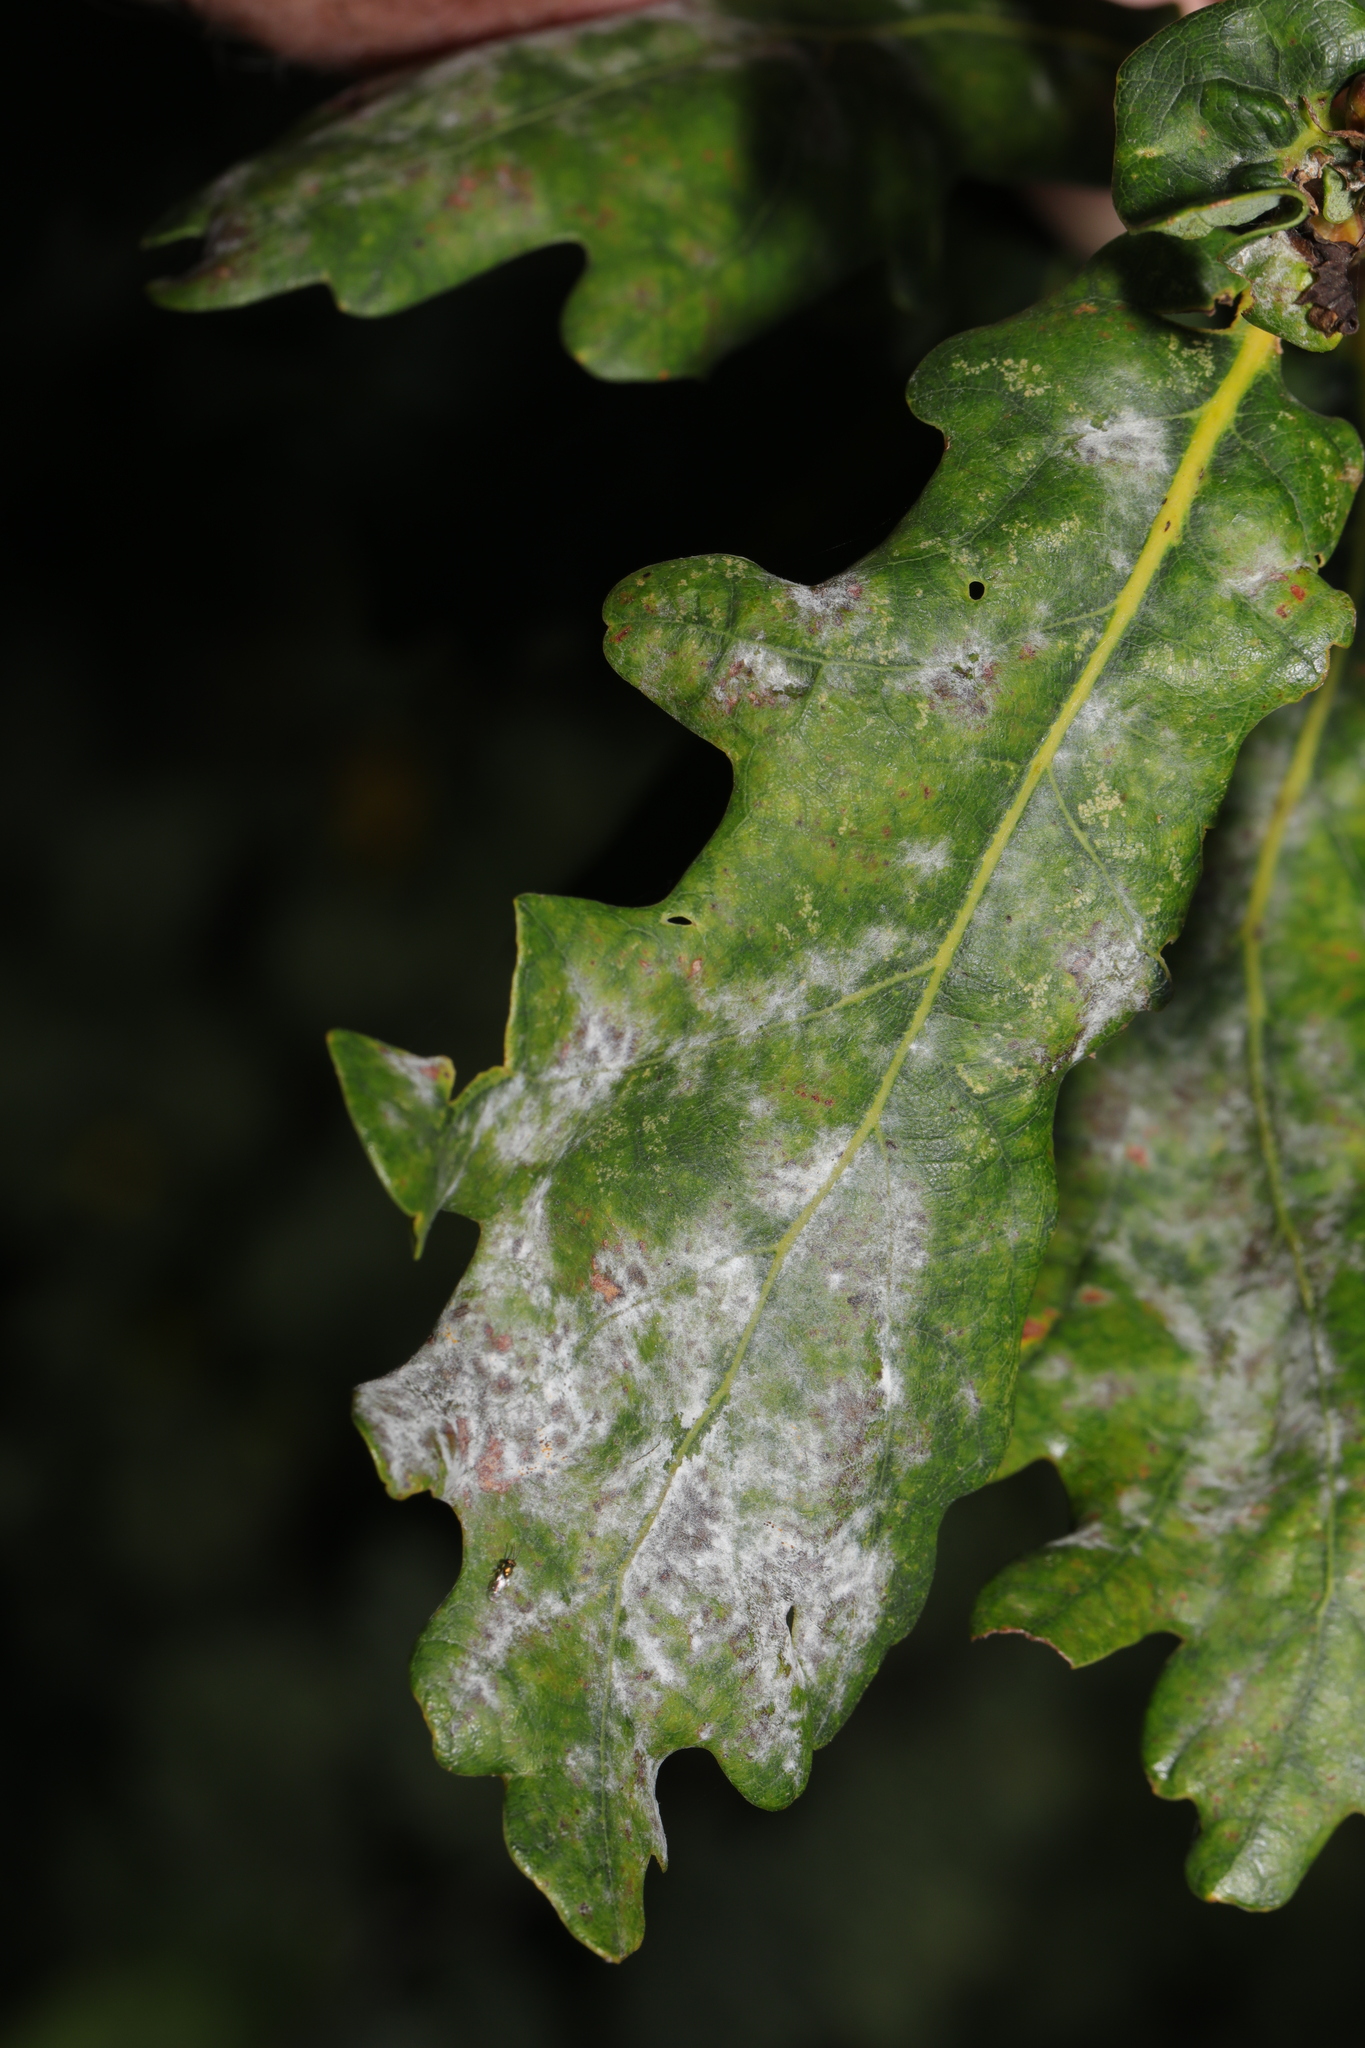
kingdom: Fungi
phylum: Ascomycota
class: Leotiomycetes
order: Helotiales
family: Erysiphaceae
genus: Erysiphe
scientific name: Erysiphe alphitoides
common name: Oak mildew
